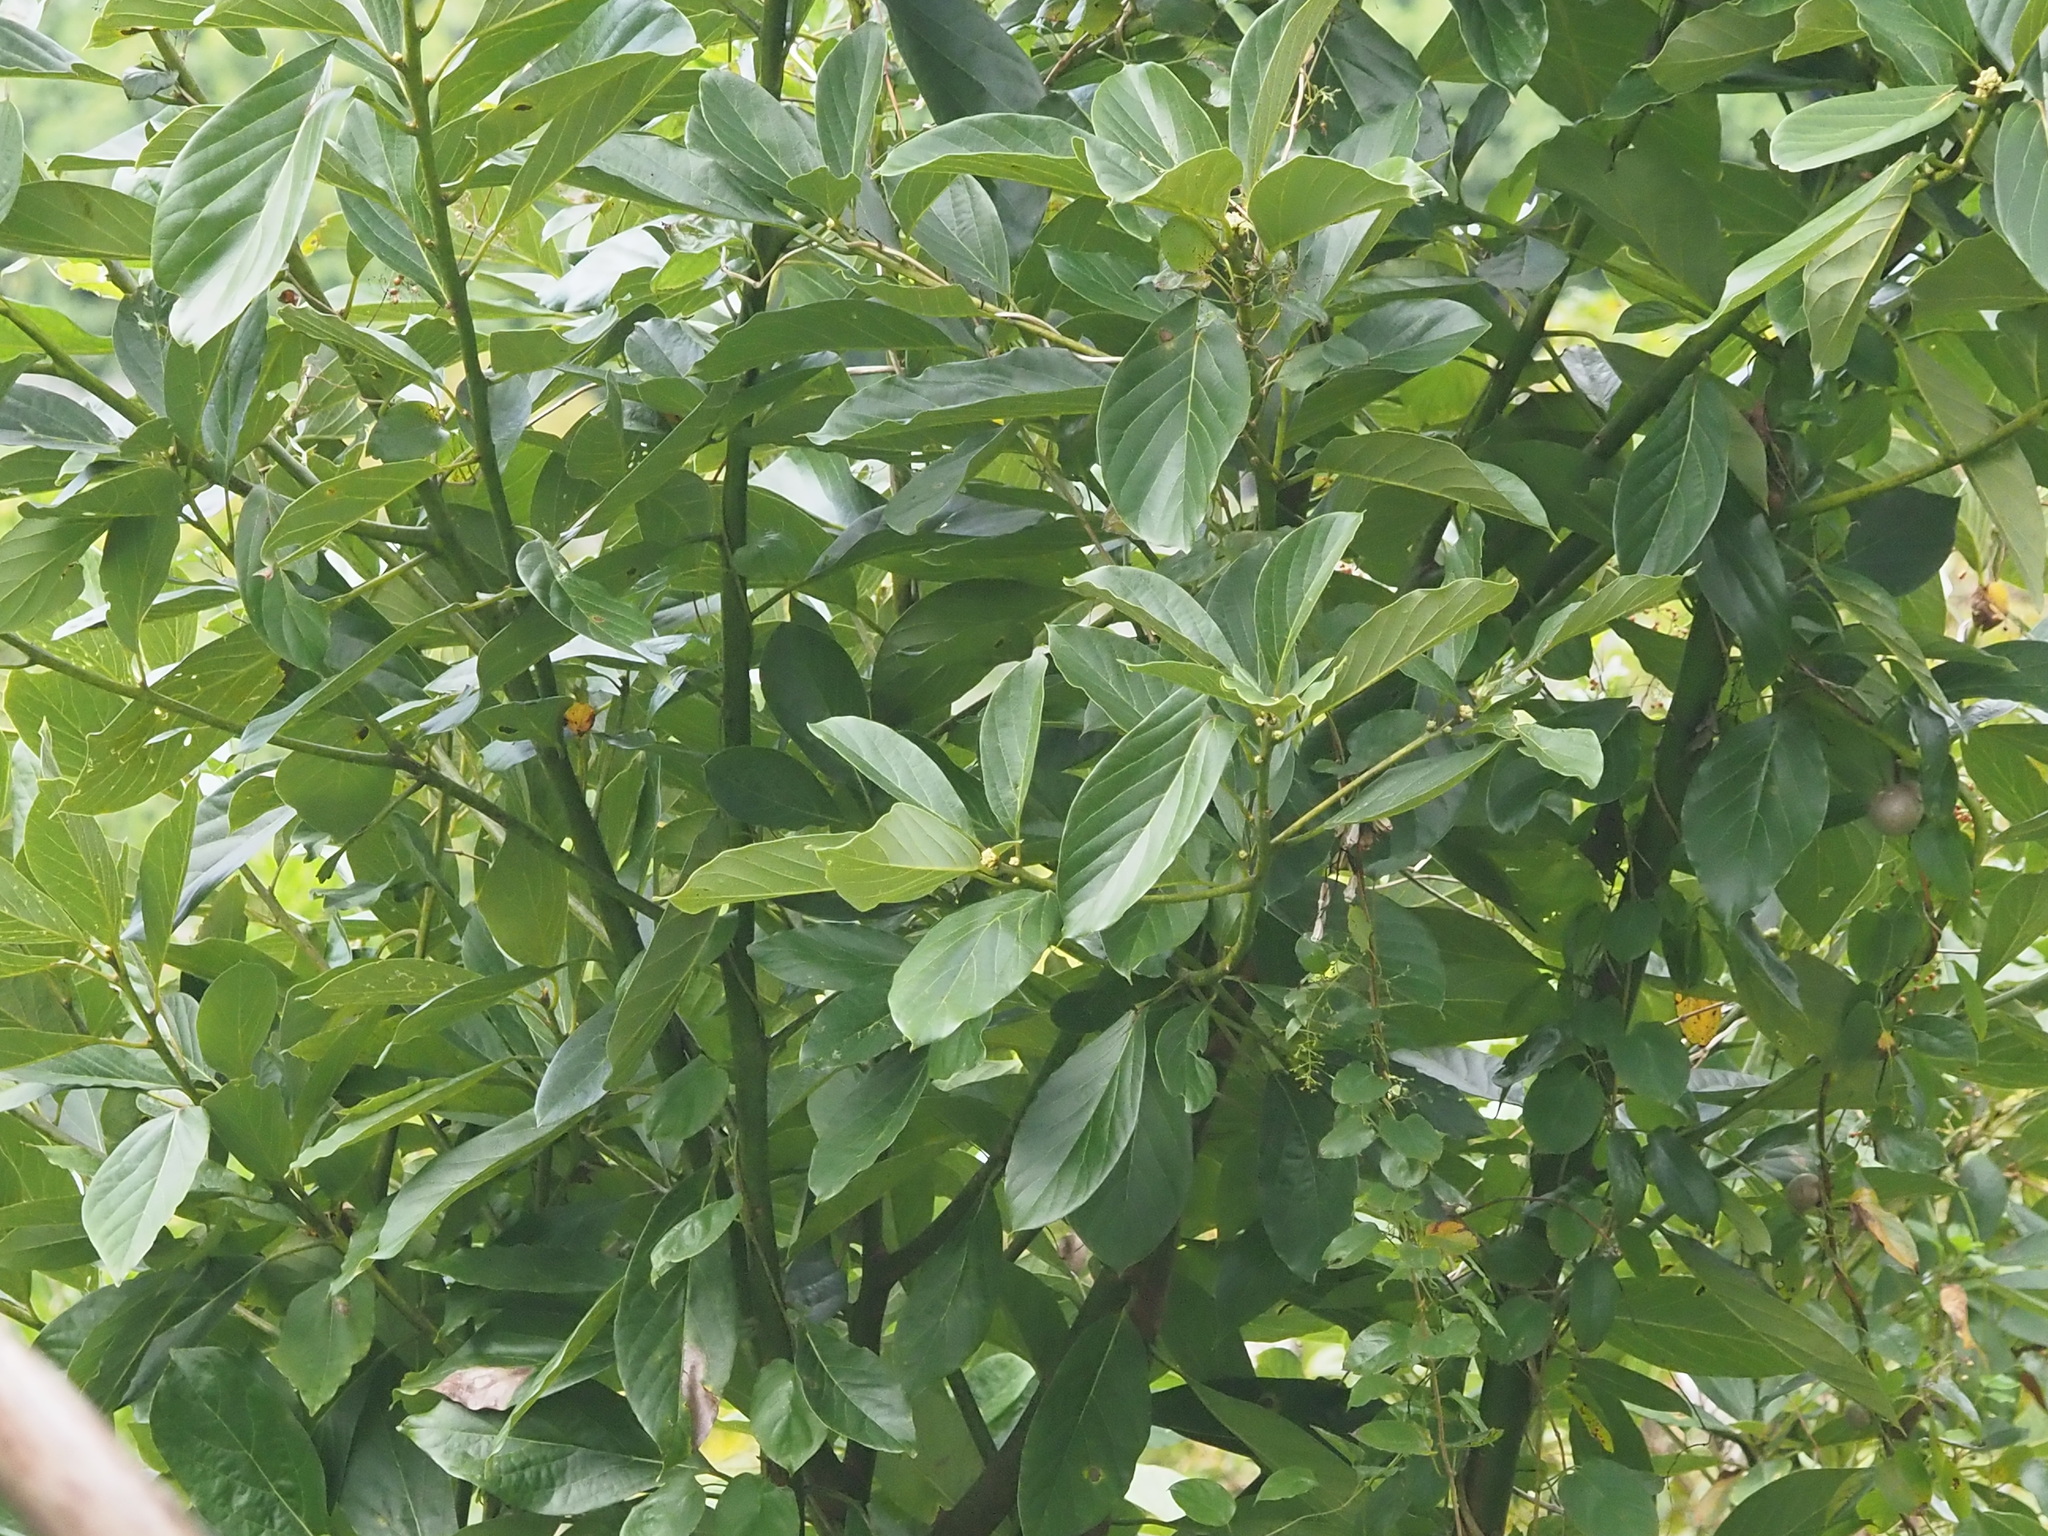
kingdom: Plantae
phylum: Tracheophyta
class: Magnoliopsida
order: Laurales
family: Lauraceae
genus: Persea
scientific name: Persea americana
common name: Avocado
